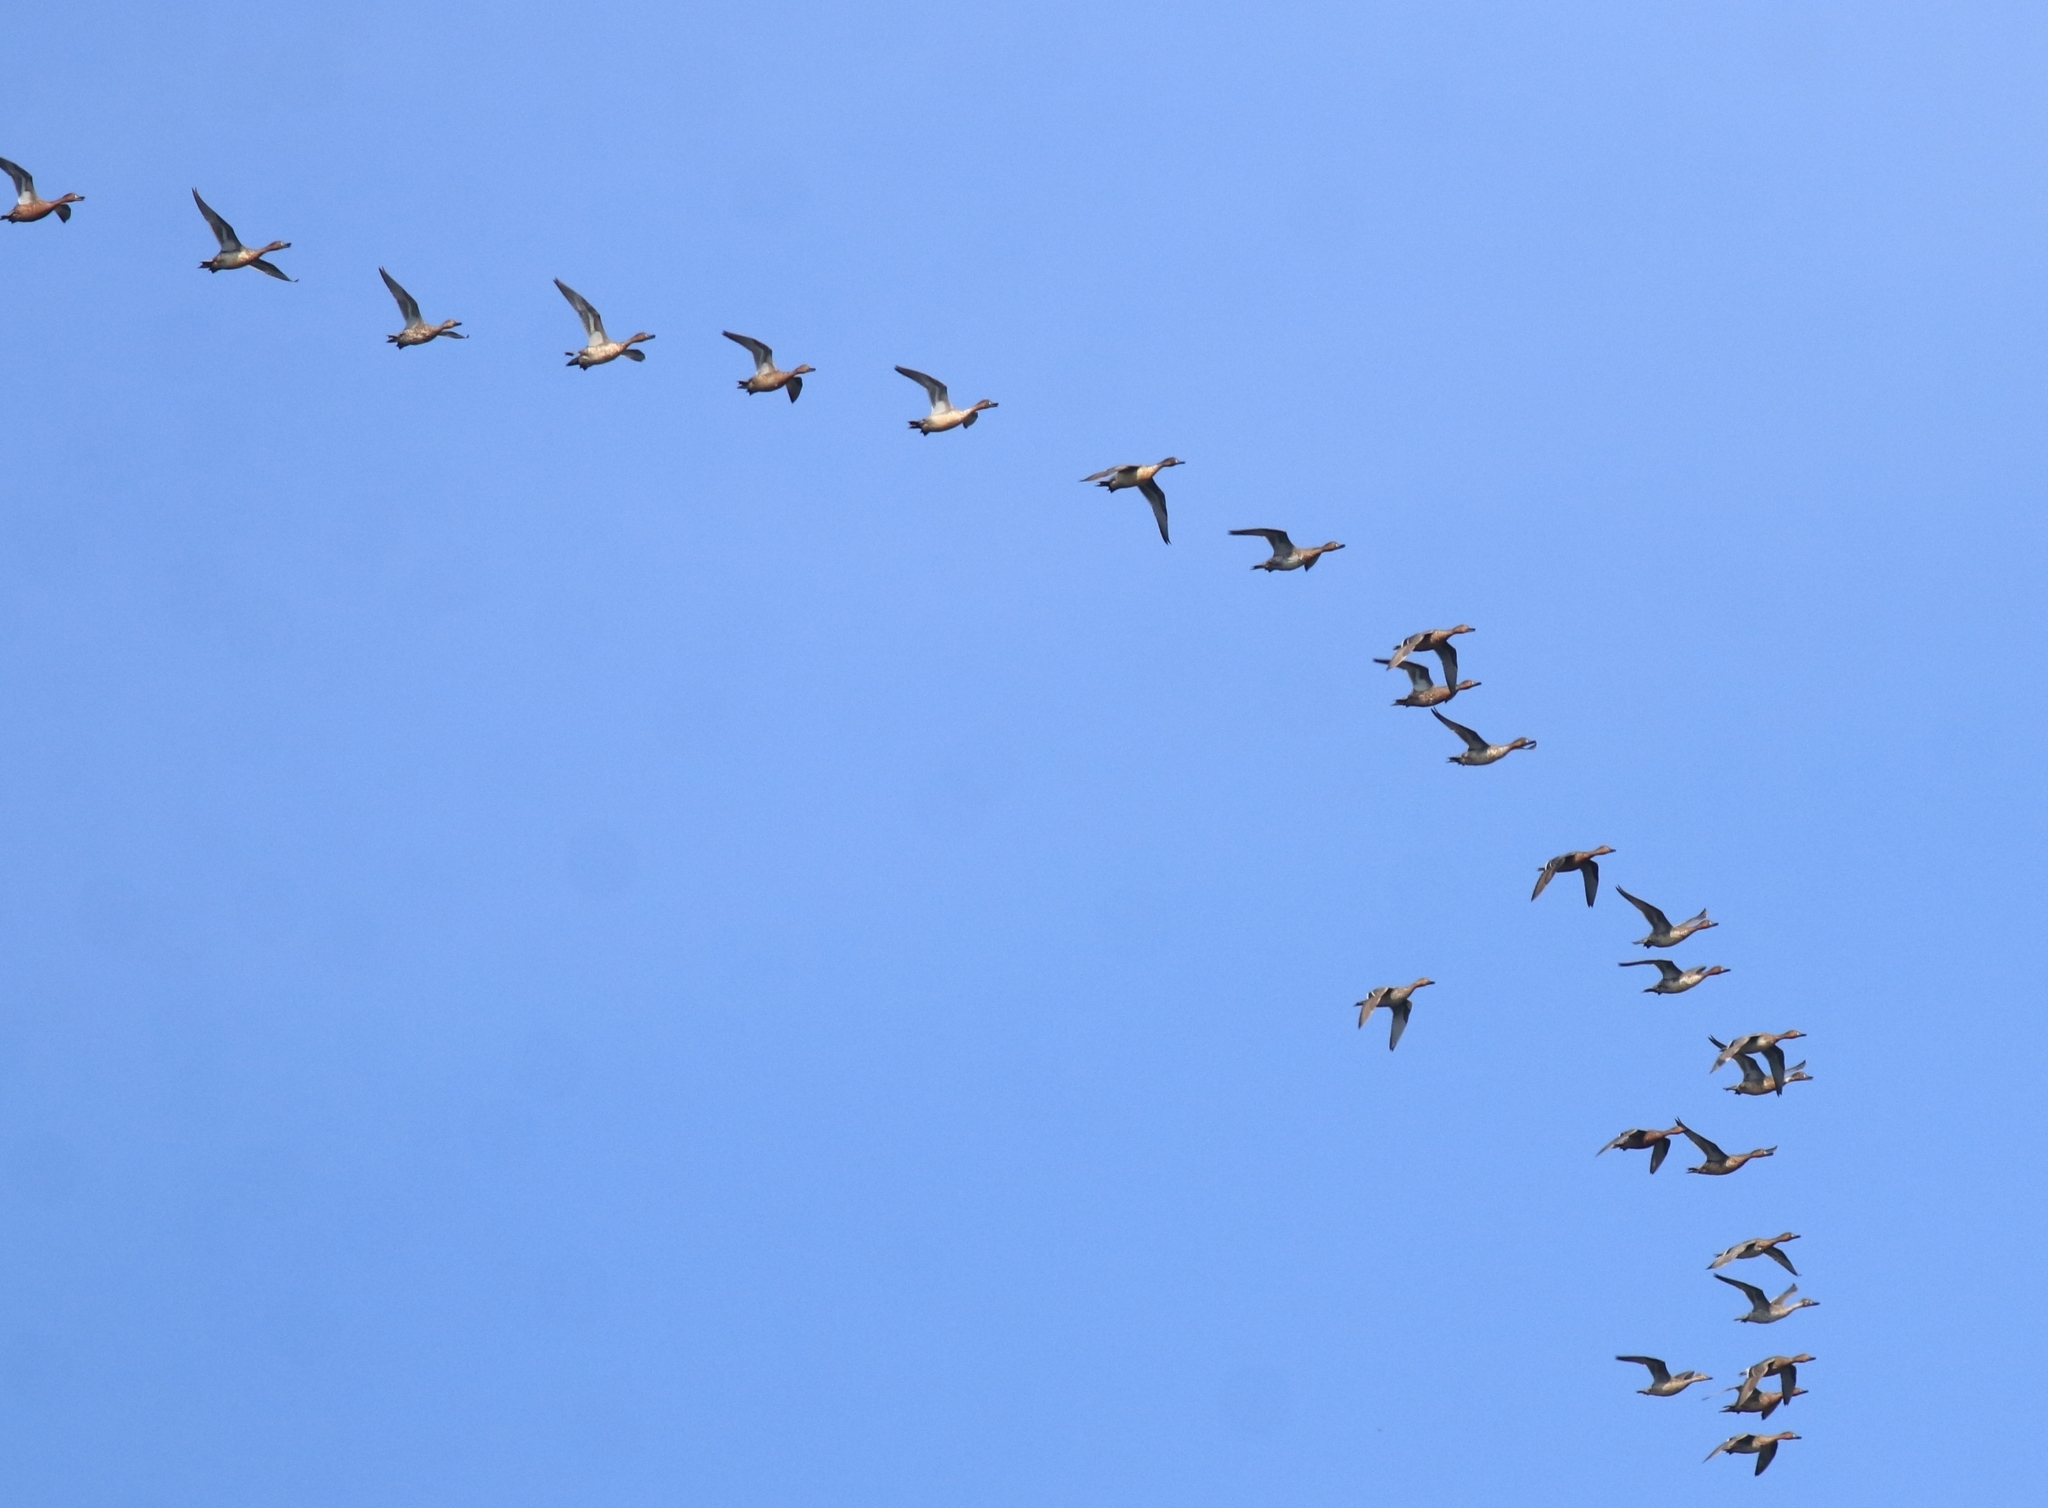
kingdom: Animalia
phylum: Chordata
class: Aves
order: Anseriformes
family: Anatidae
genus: Anas
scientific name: Anas acuta
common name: Northern pintail
